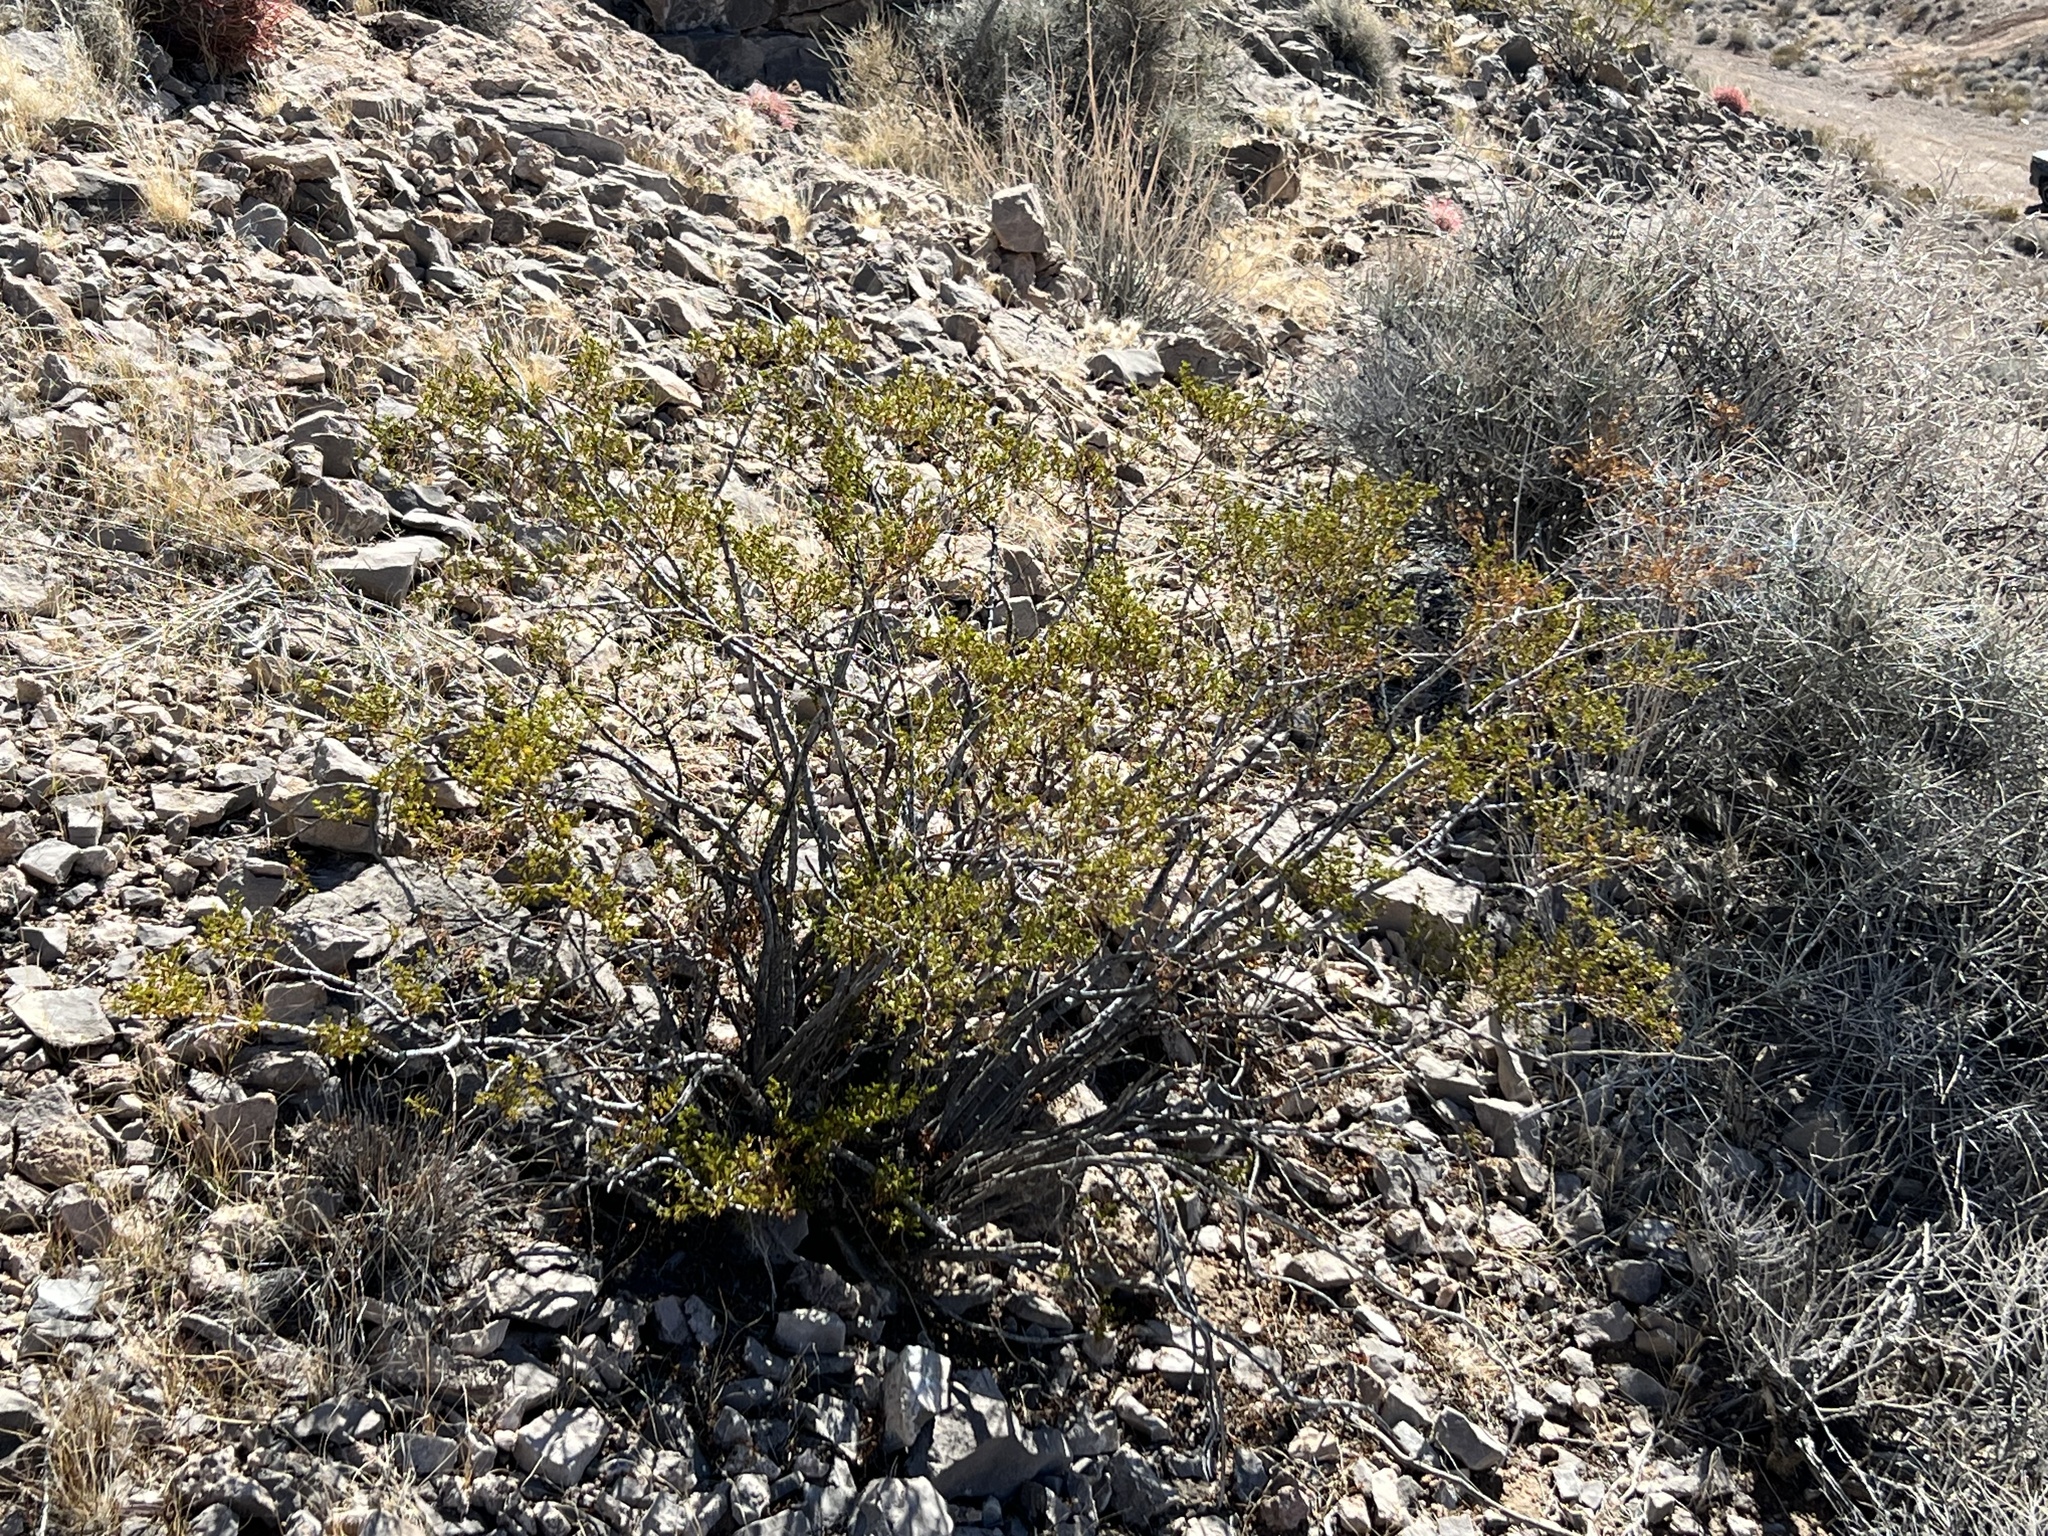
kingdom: Plantae
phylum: Tracheophyta
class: Magnoliopsida
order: Zygophyllales
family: Zygophyllaceae
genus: Larrea
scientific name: Larrea tridentata
